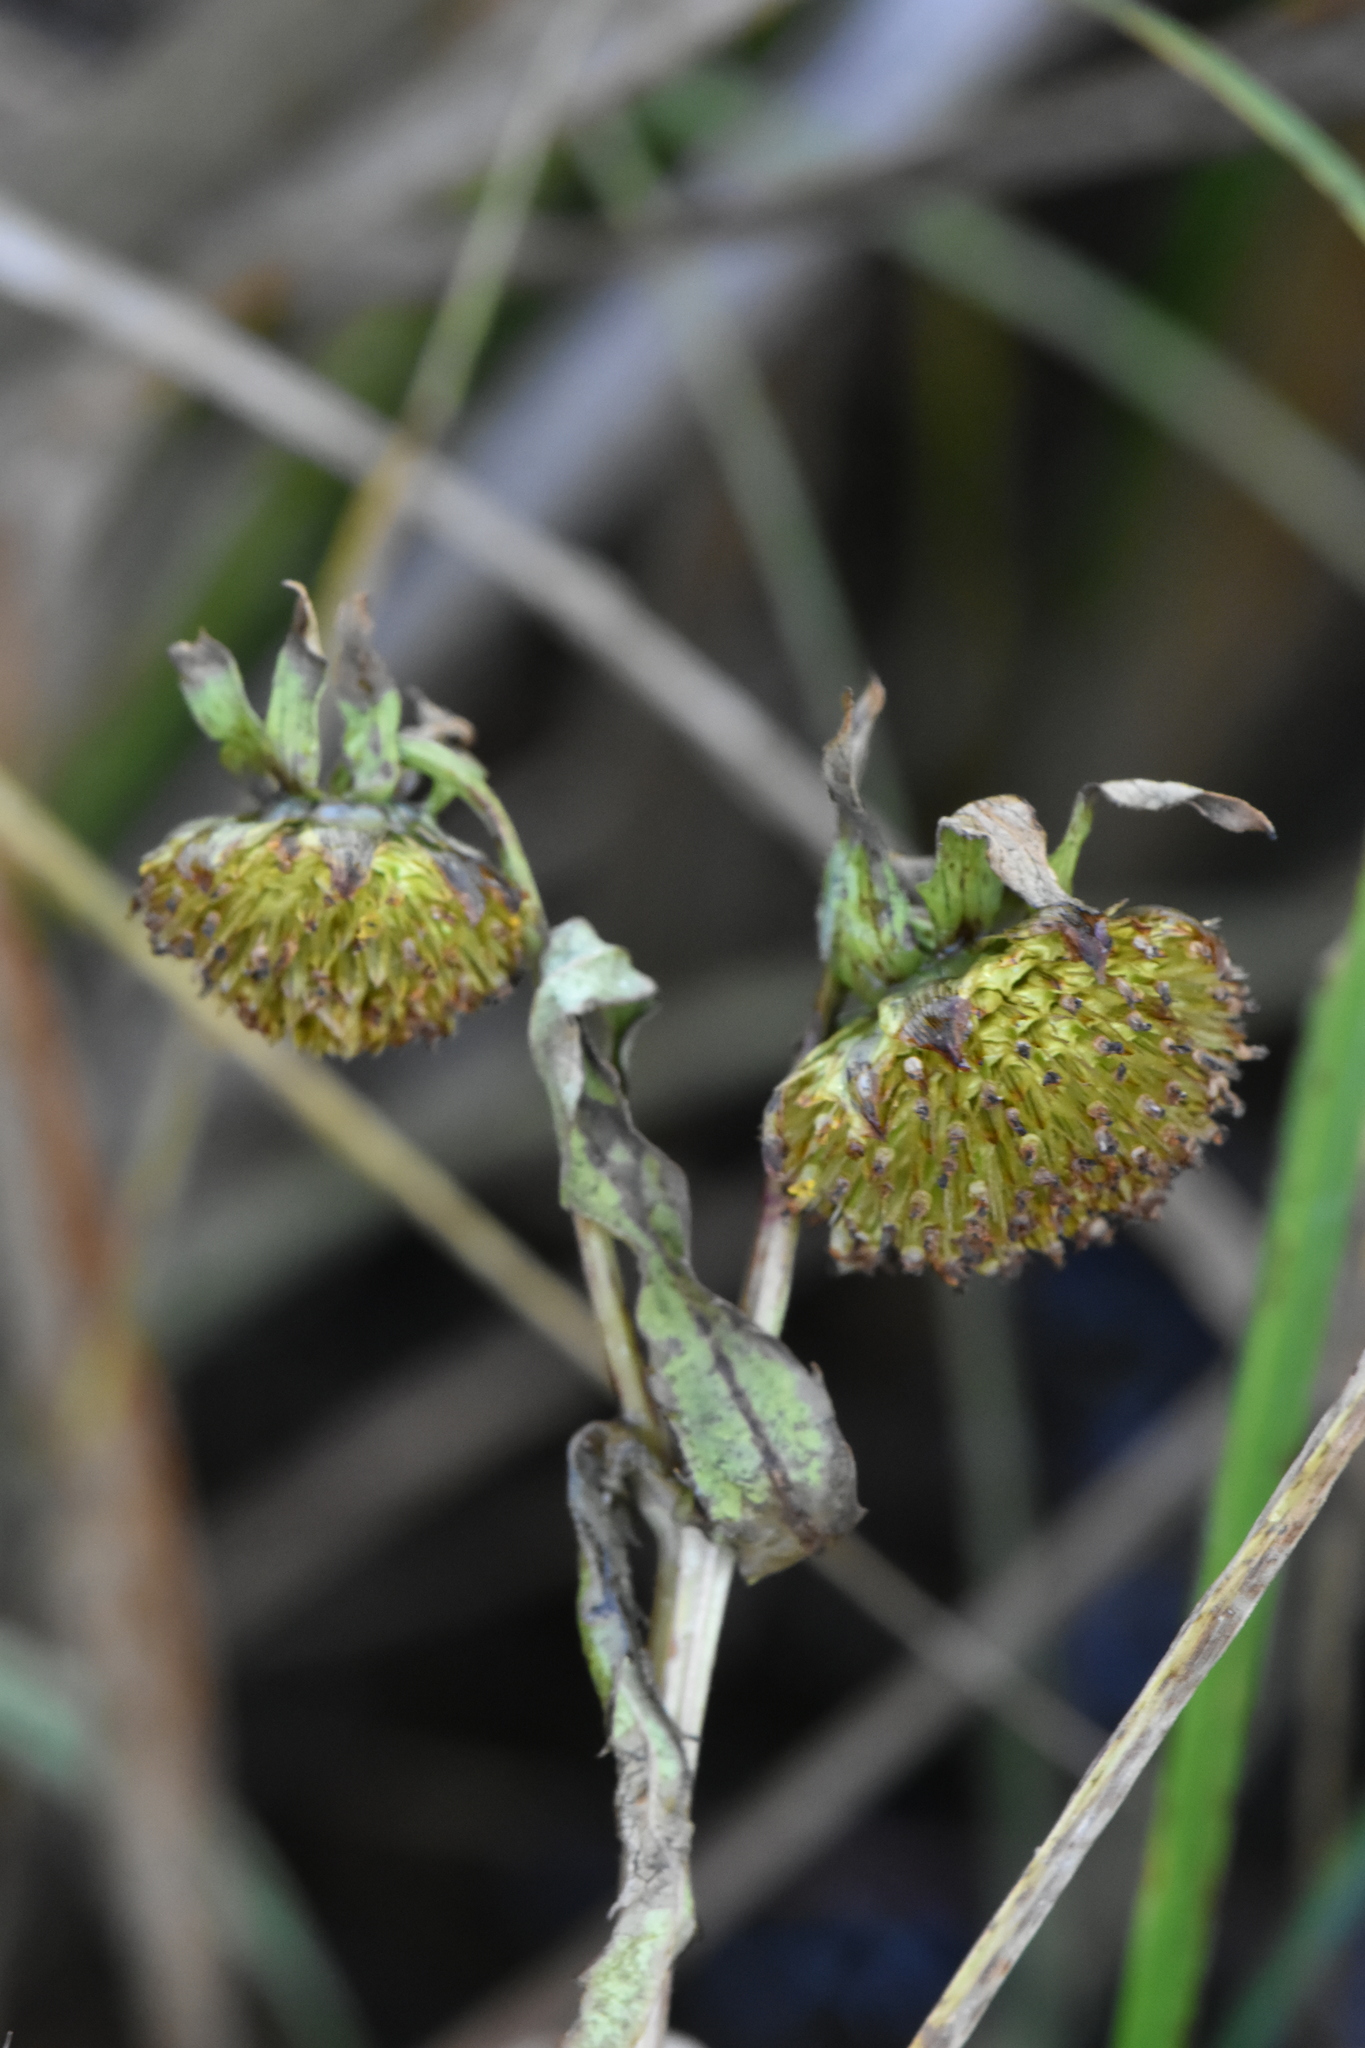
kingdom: Plantae
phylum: Tracheophyta
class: Magnoliopsida
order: Asterales
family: Asteraceae
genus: Bidens
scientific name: Bidens cernua
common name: Nodding bur-marigold
